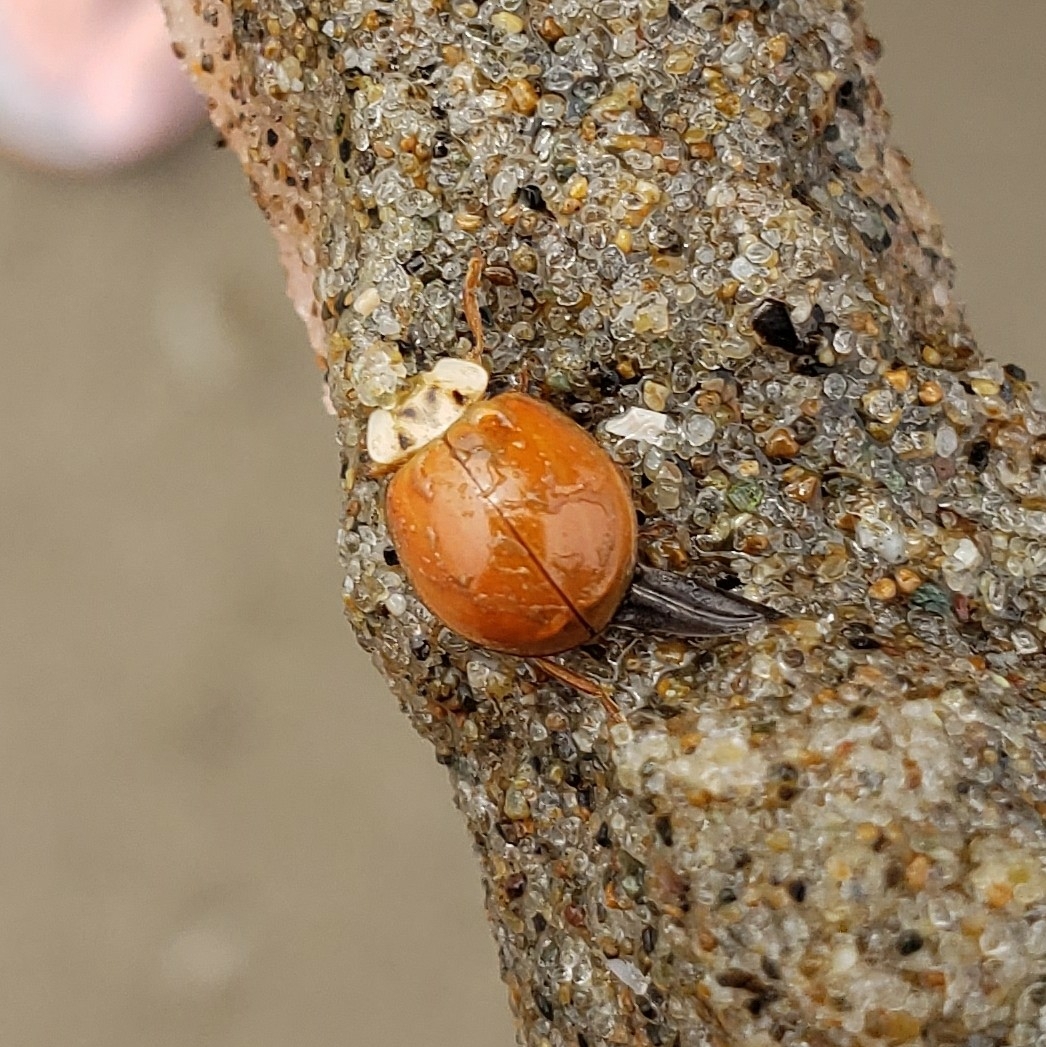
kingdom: Animalia
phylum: Arthropoda
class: Insecta
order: Coleoptera
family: Coccinellidae
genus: Harmonia
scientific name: Harmonia axyridis
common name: Harlequin ladybird
